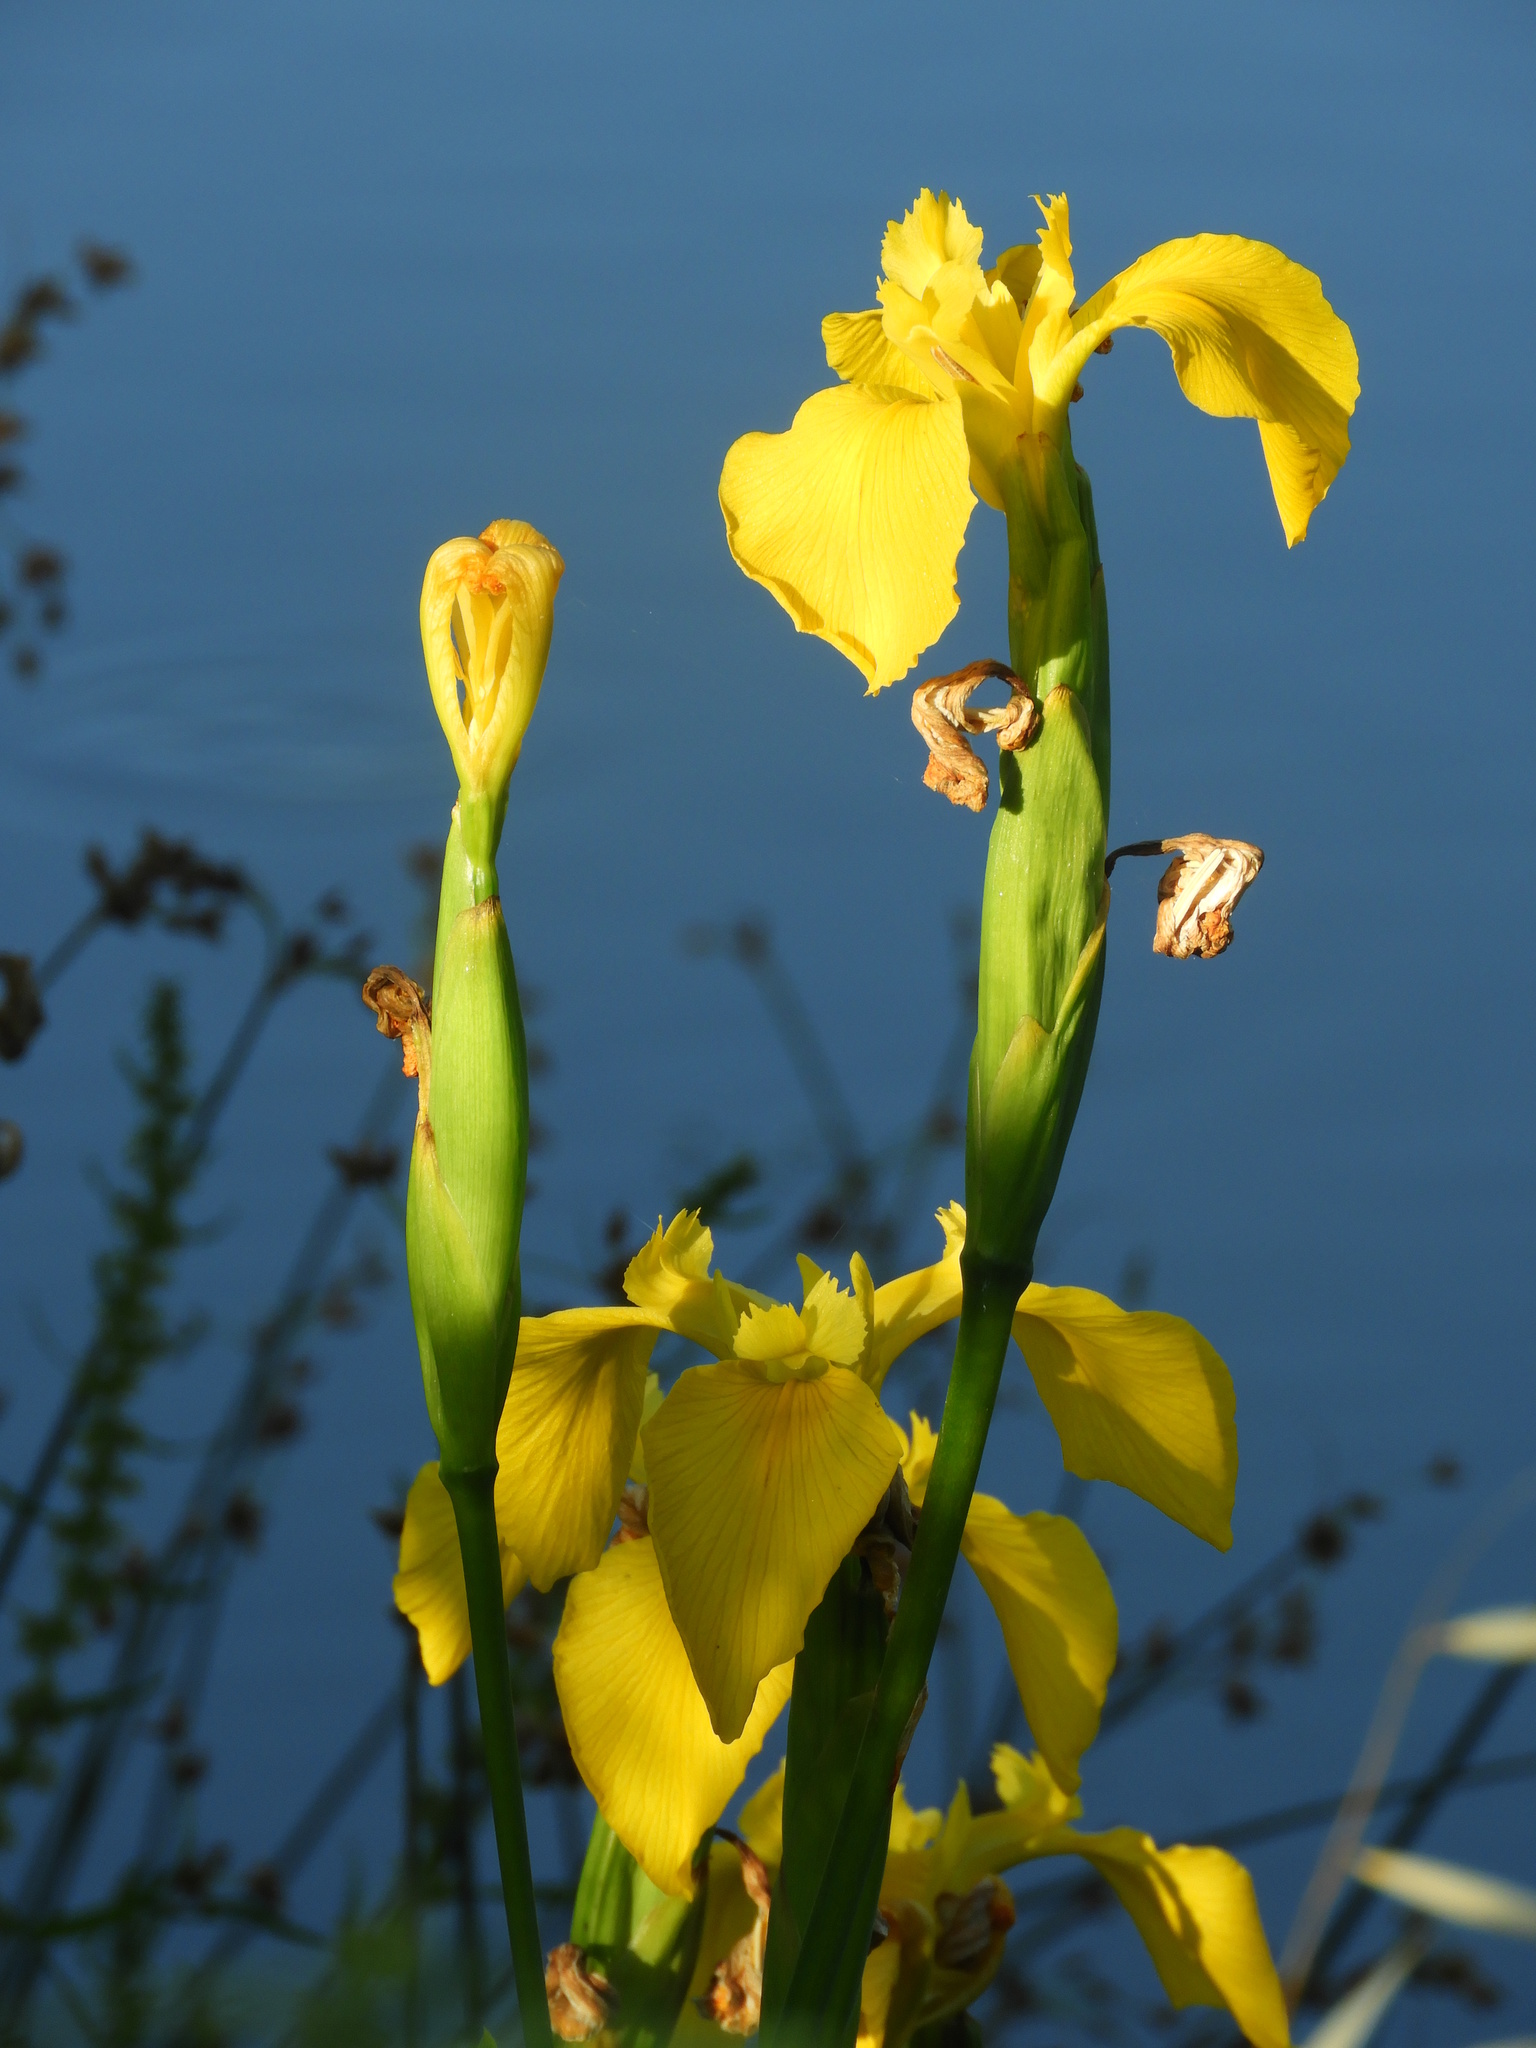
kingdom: Plantae
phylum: Tracheophyta
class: Liliopsida
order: Asparagales
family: Iridaceae
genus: Iris
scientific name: Iris pseudacorus
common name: Yellow flag
